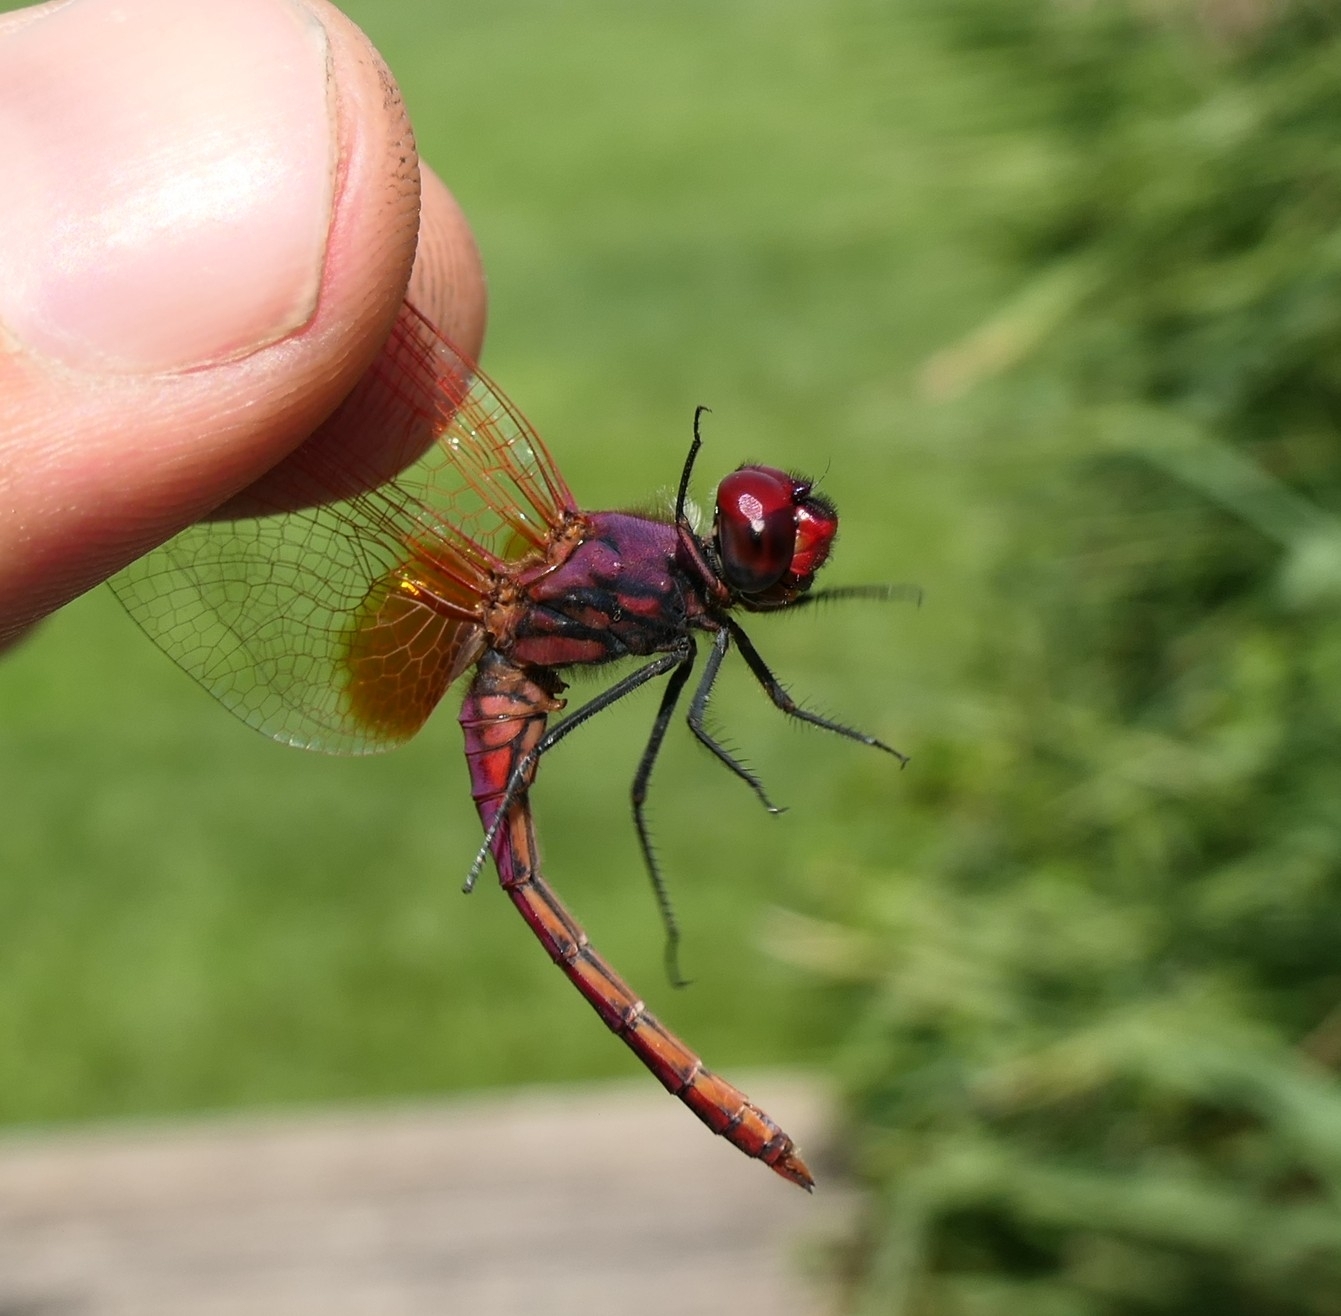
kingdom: Animalia
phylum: Arthropoda
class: Insecta
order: Odonata
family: Libellulidae
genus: Trithemis
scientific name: Trithemis annulata
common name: Violet dropwing
